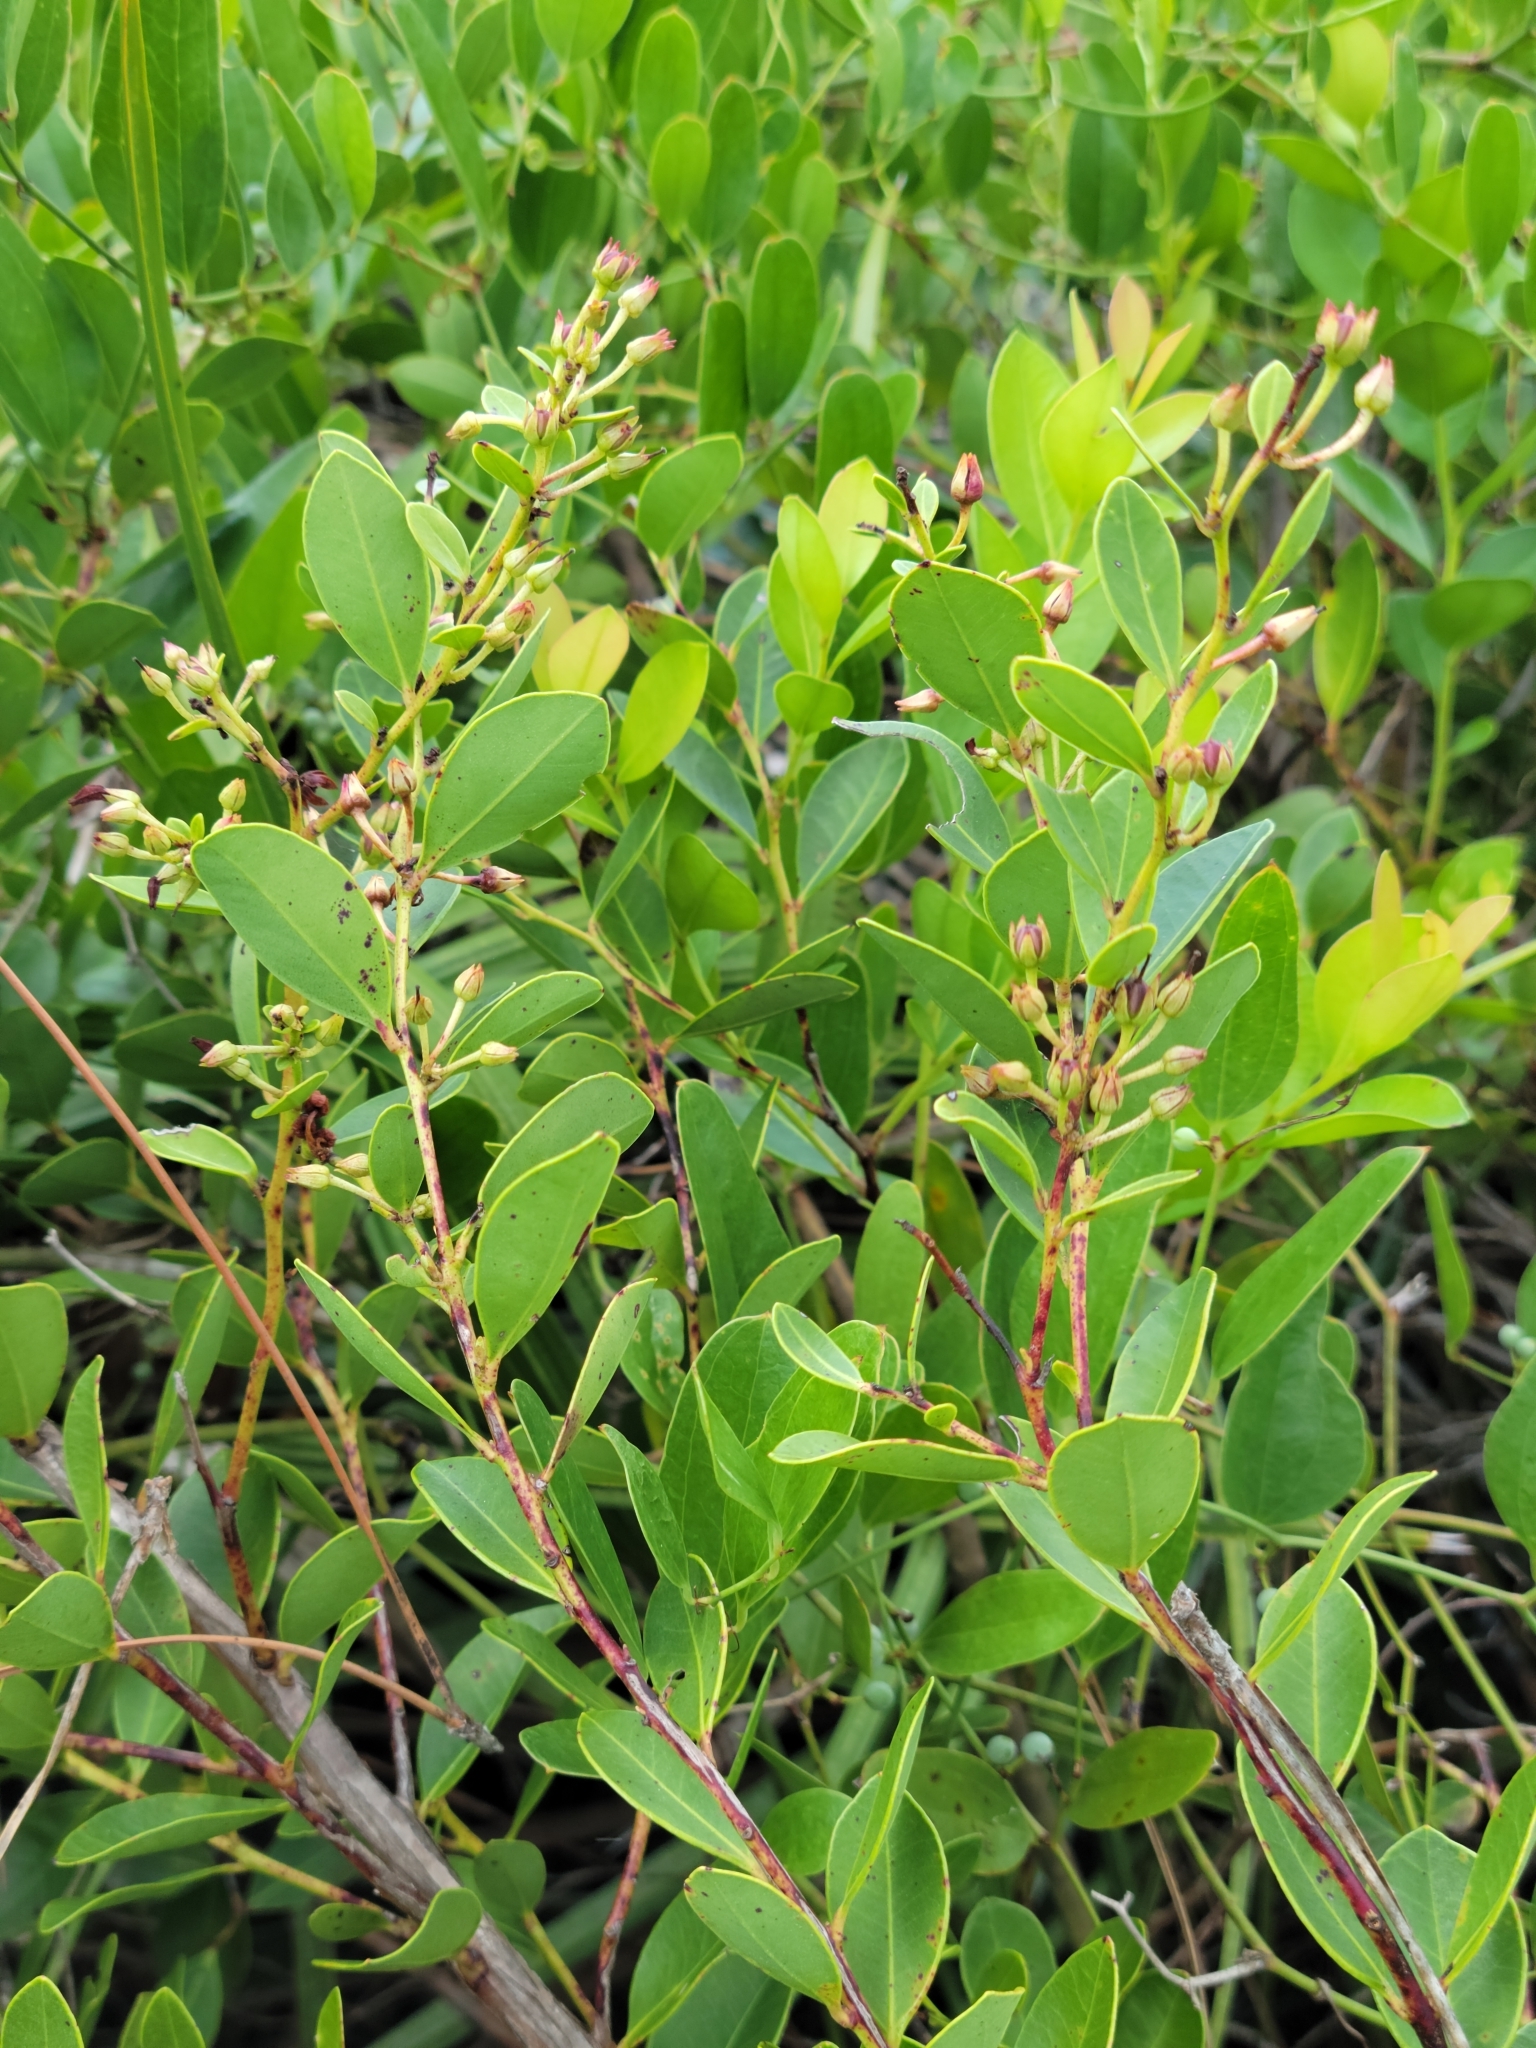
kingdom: Plantae
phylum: Tracheophyta
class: Magnoliopsida
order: Ericales
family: Ericaceae
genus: Lyonia
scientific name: Lyonia lucida
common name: Fetterbush
